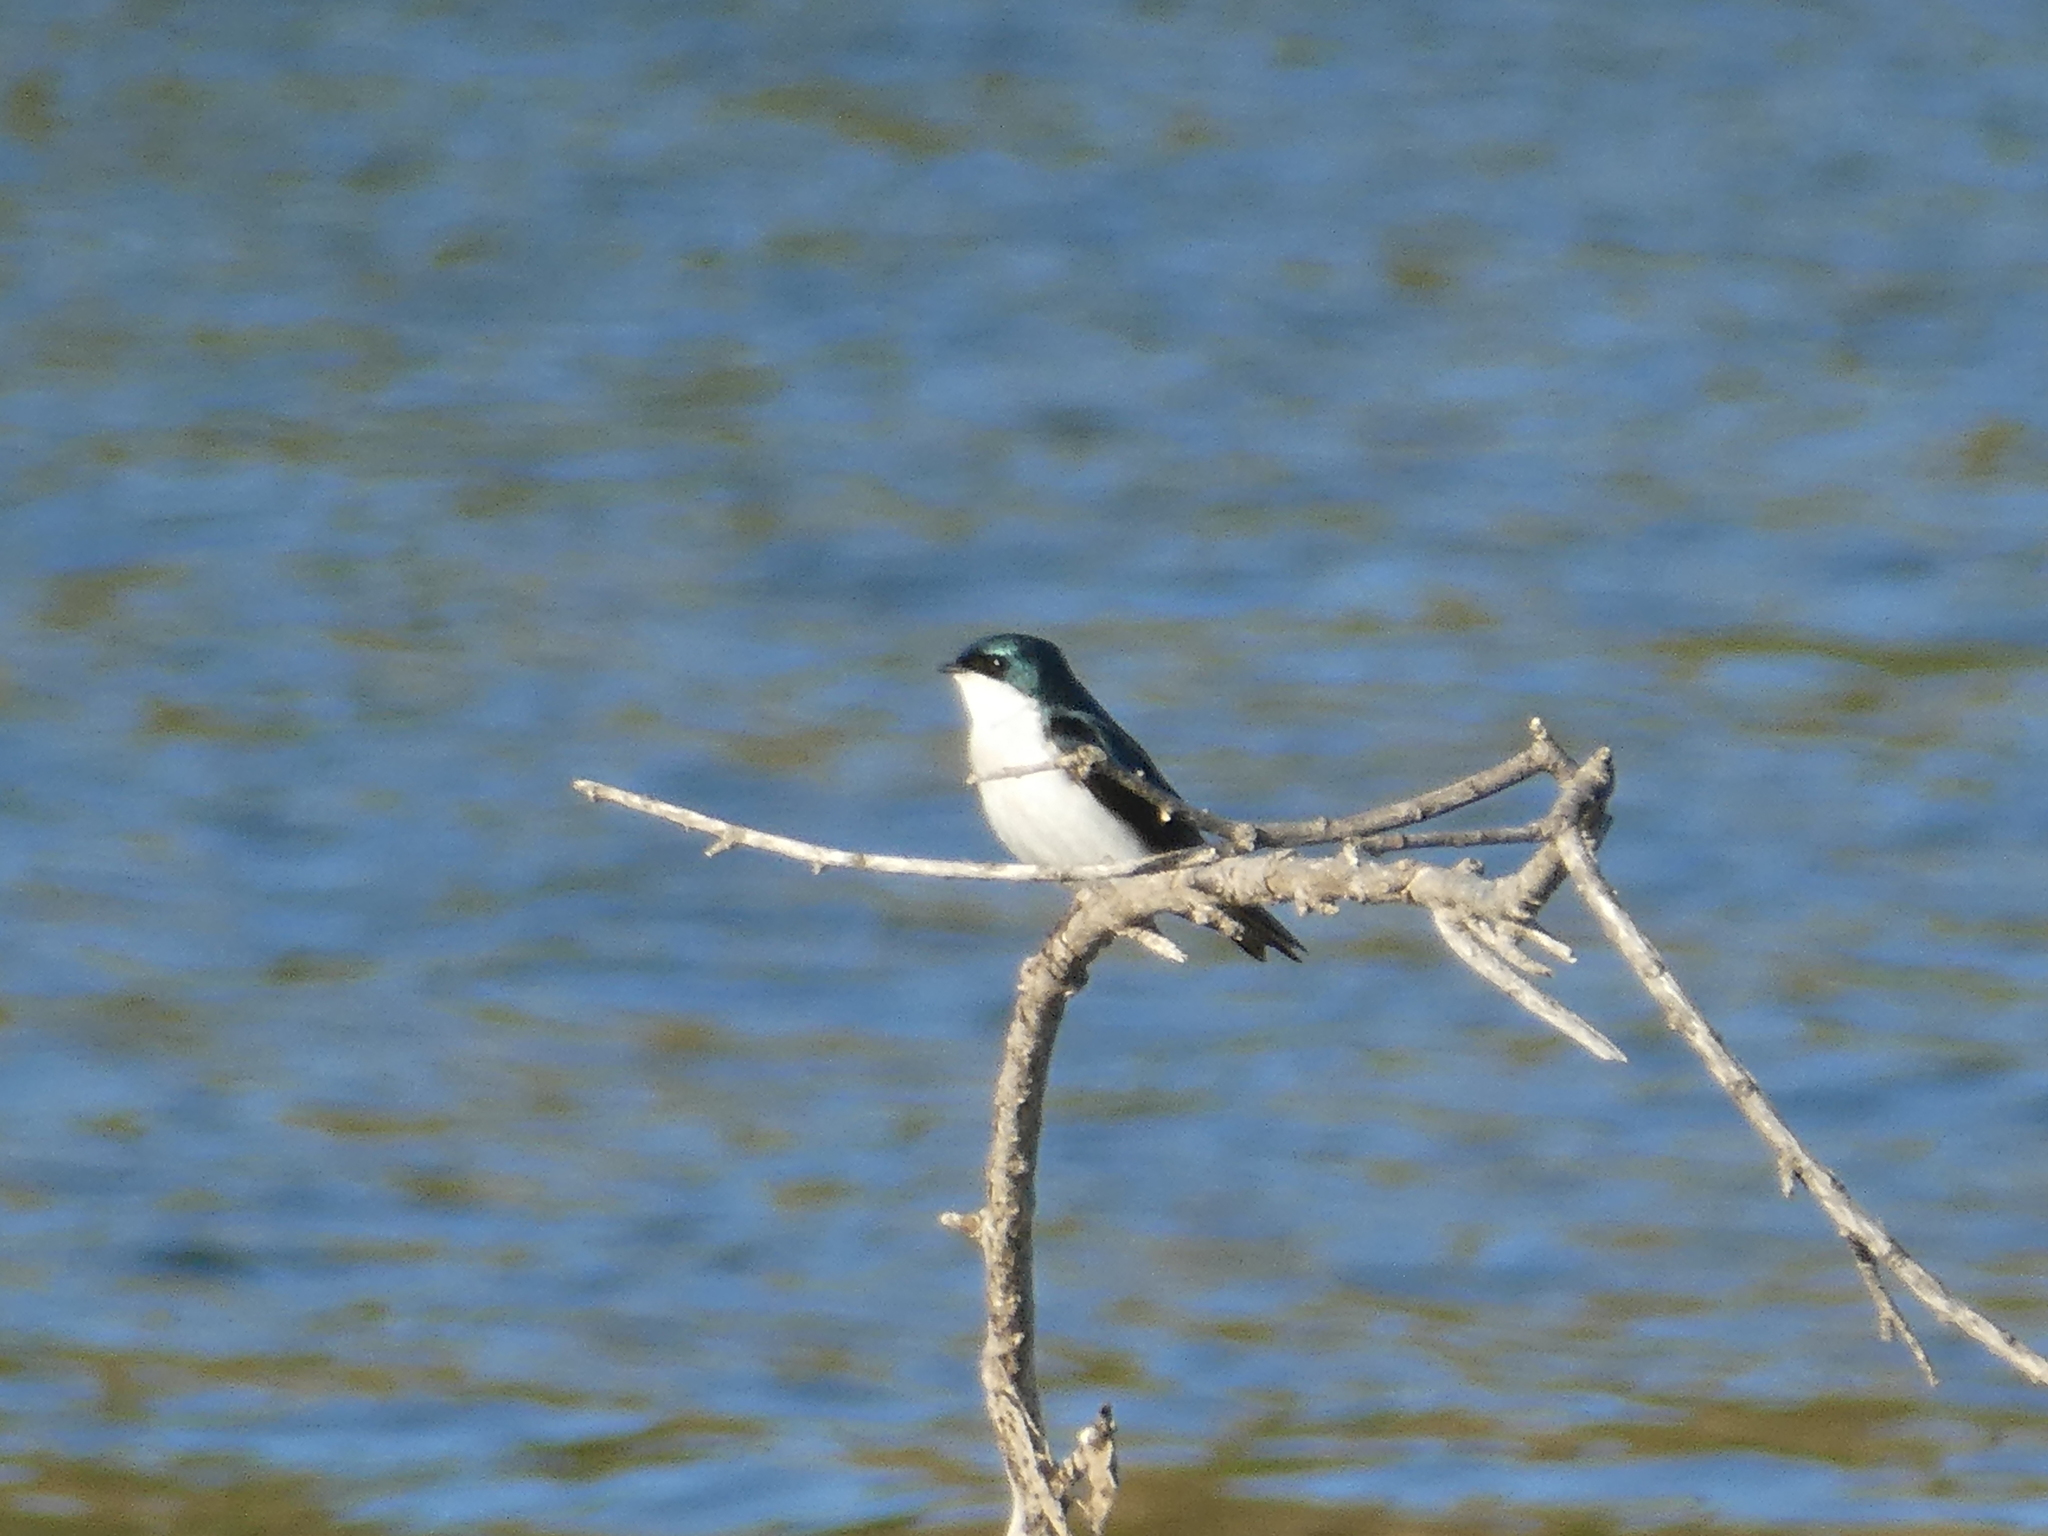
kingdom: Animalia
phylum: Chordata
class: Aves
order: Passeriformes
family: Hirundinidae
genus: Tachycineta
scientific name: Tachycineta bicolor
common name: Tree swallow
